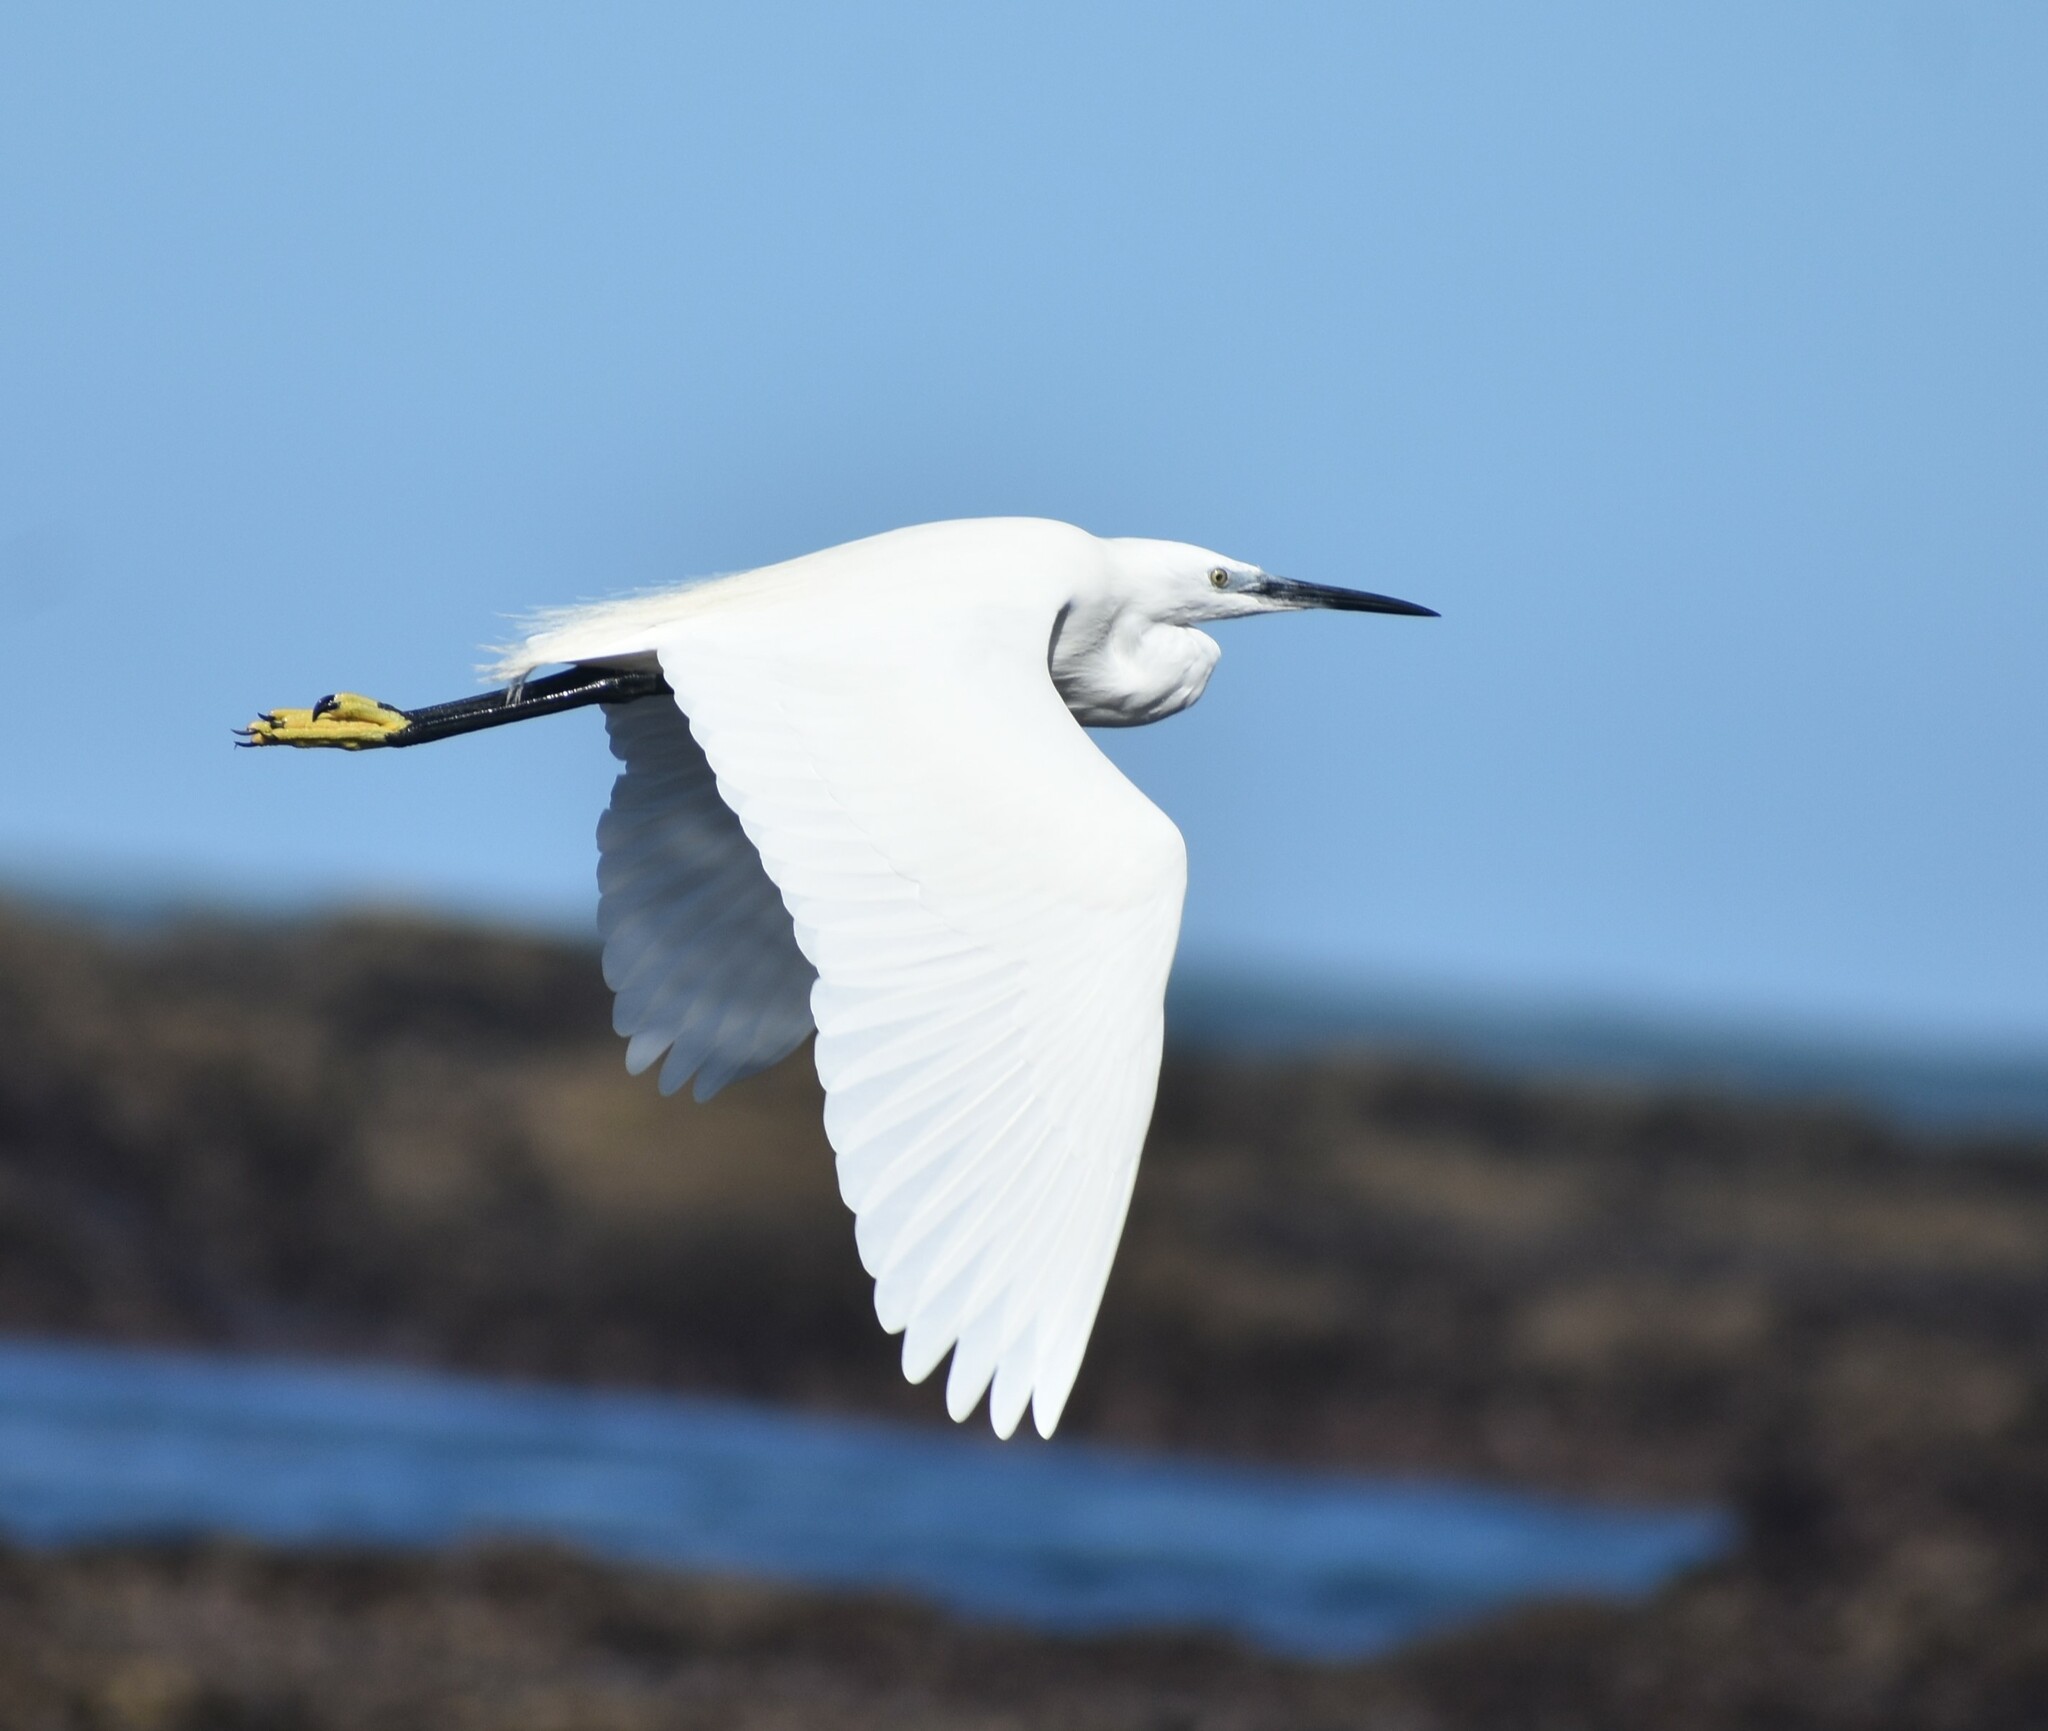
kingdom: Animalia
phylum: Chordata
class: Aves
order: Pelecaniformes
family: Ardeidae
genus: Egretta
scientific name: Egretta garzetta
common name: Little egret
